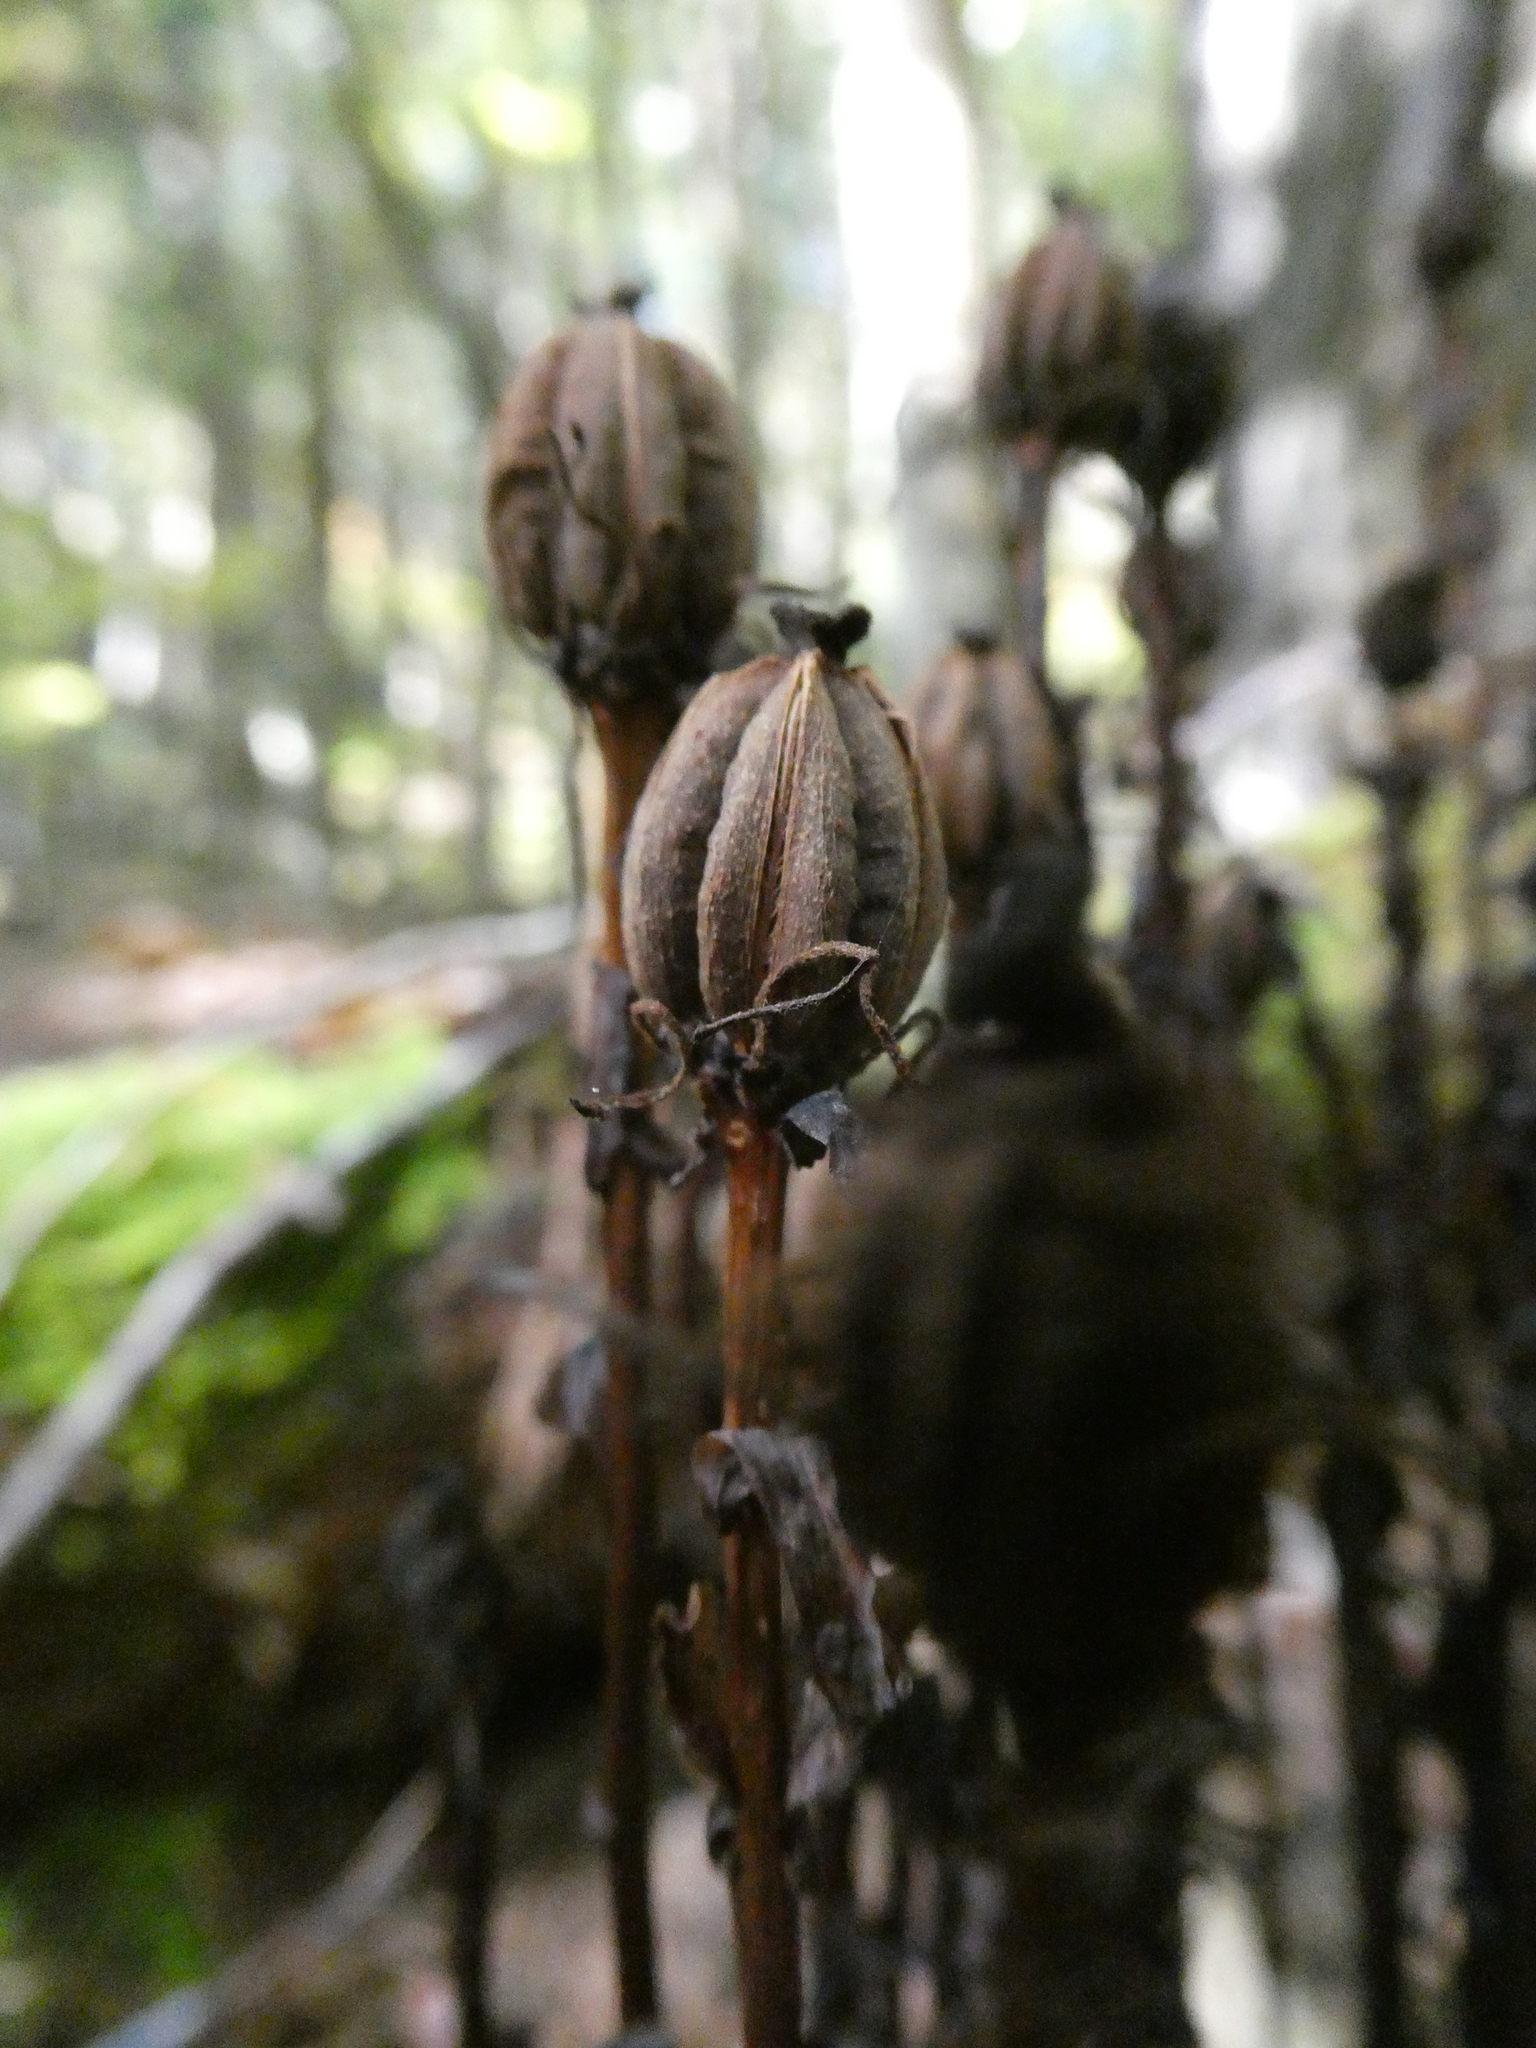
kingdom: Plantae
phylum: Tracheophyta
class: Magnoliopsida
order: Ericales
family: Ericaceae
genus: Monotropa
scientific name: Monotropa uniflora
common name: Convulsion root
